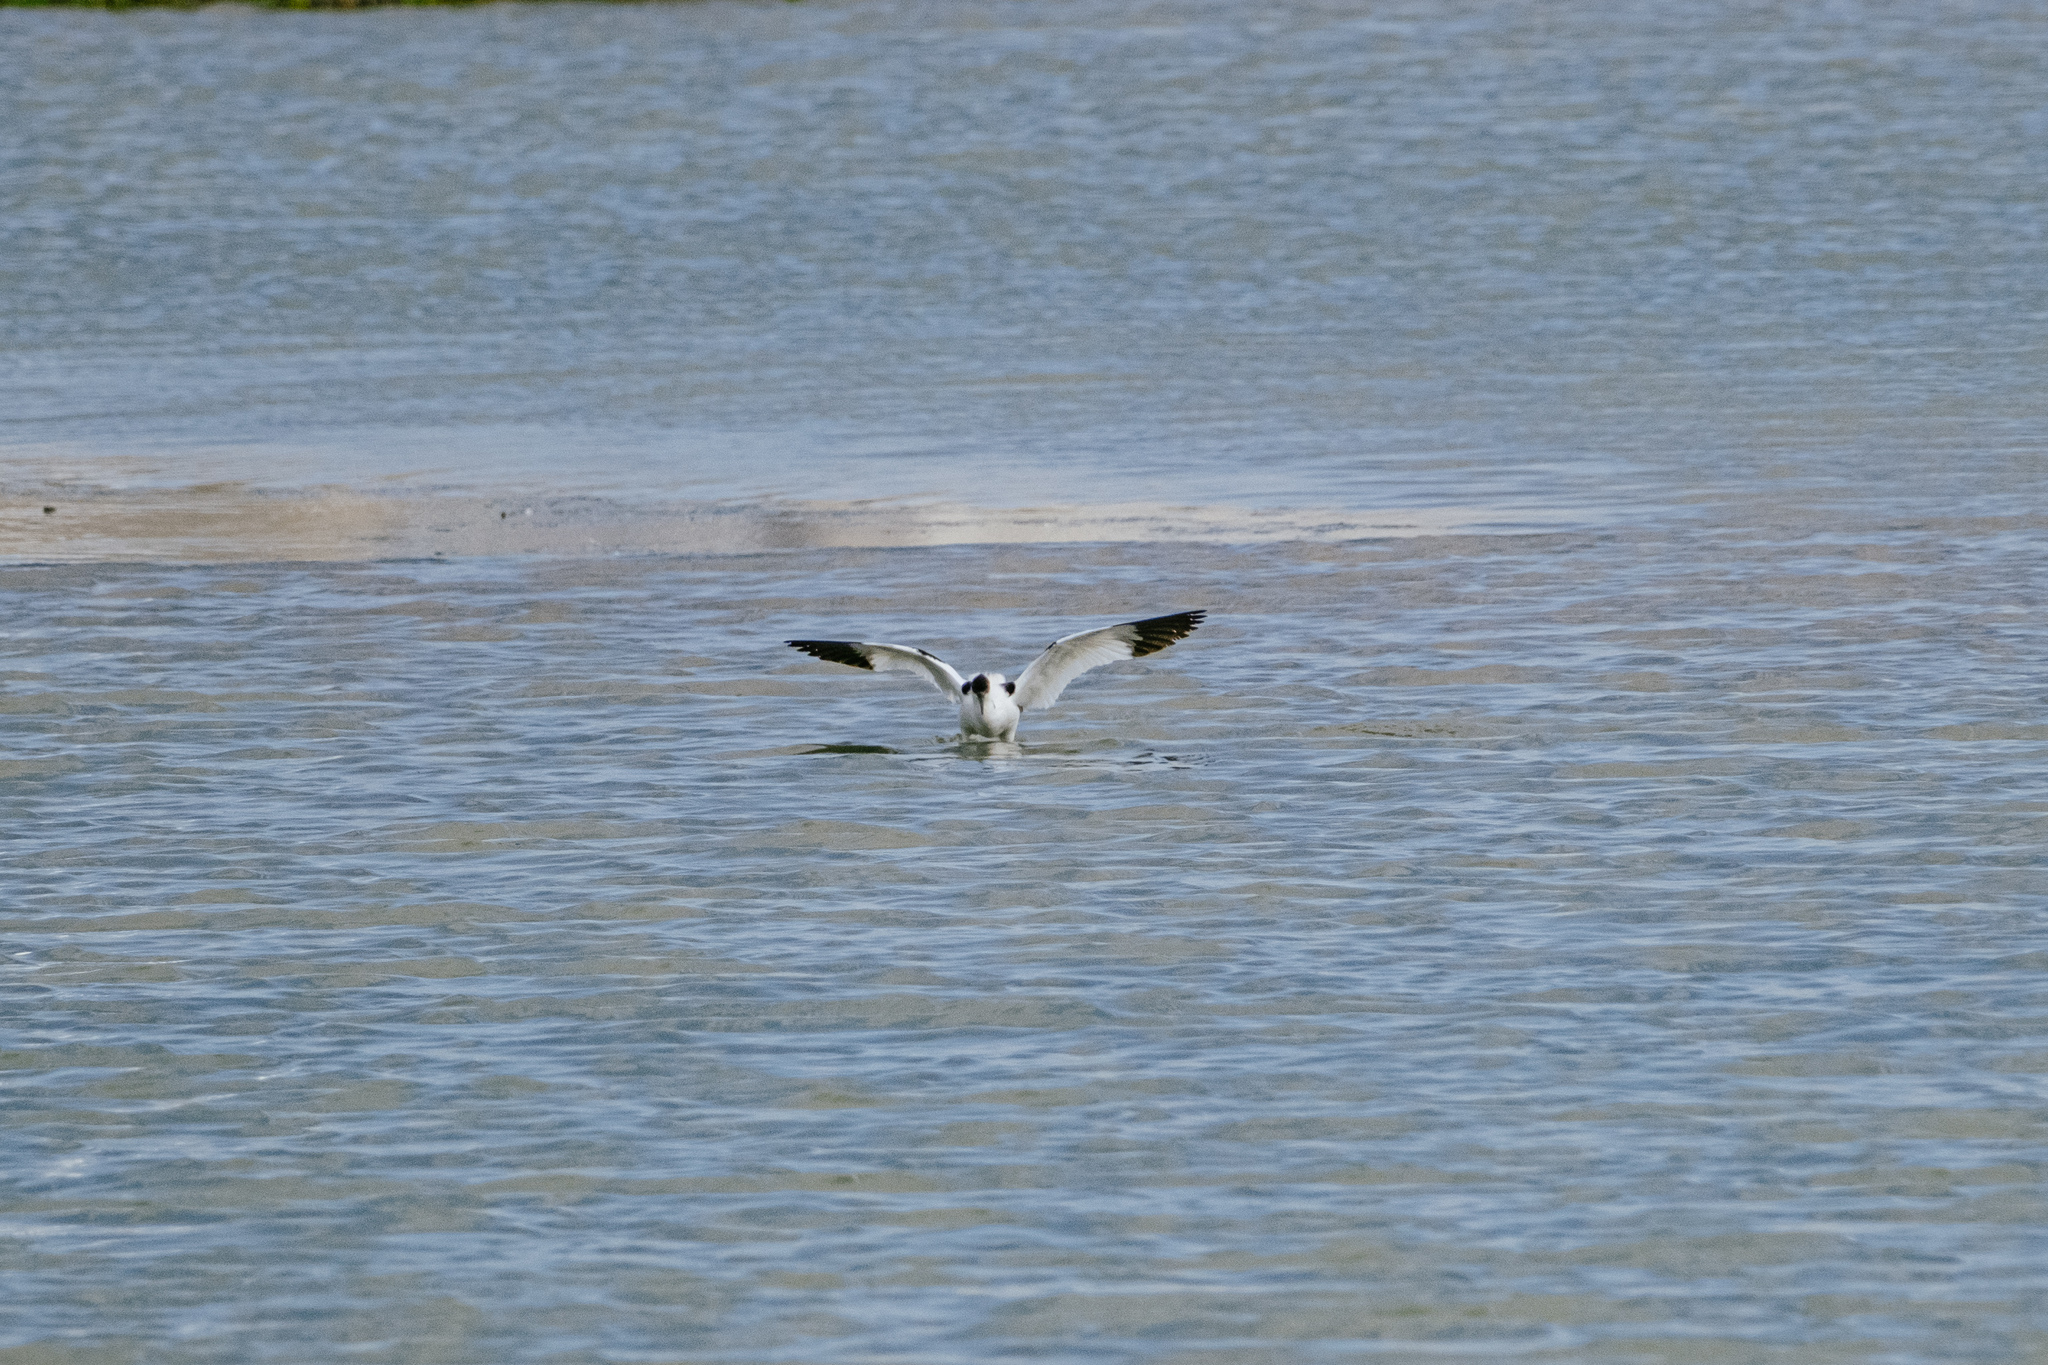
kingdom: Animalia
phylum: Chordata
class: Aves
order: Charadriiformes
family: Recurvirostridae
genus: Recurvirostra
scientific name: Recurvirostra avosetta
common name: Pied avocet
